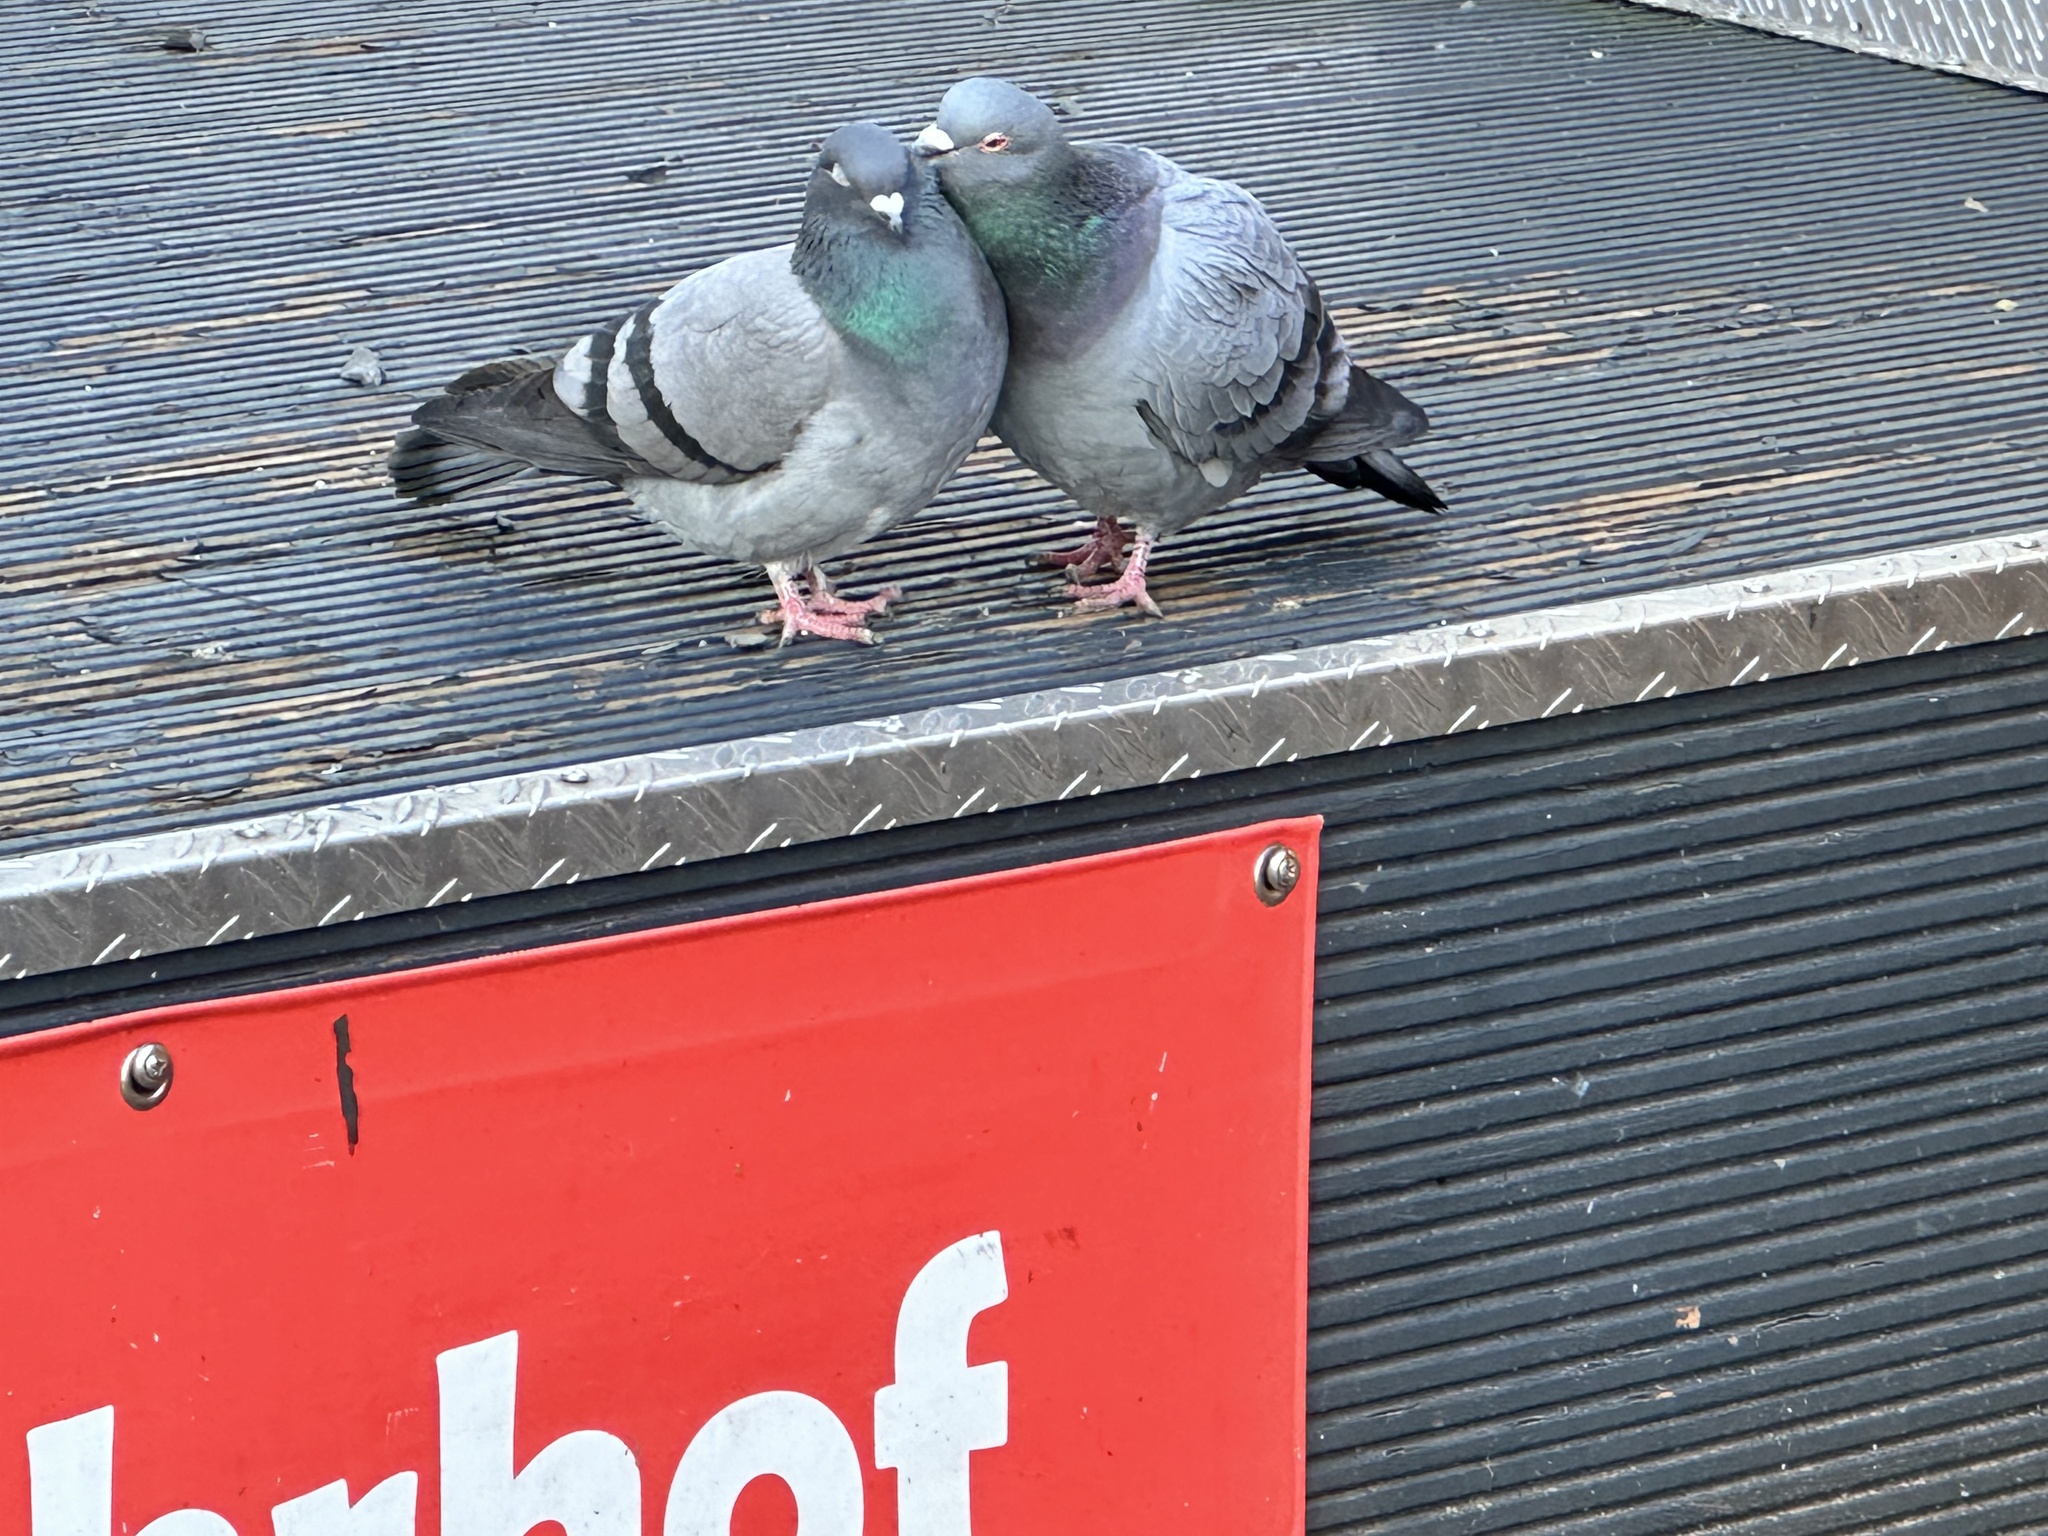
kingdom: Animalia
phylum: Chordata
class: Aves
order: Columbiformes
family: Columbidae
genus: Columba
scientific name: Columba livia
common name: Rock pigeon
